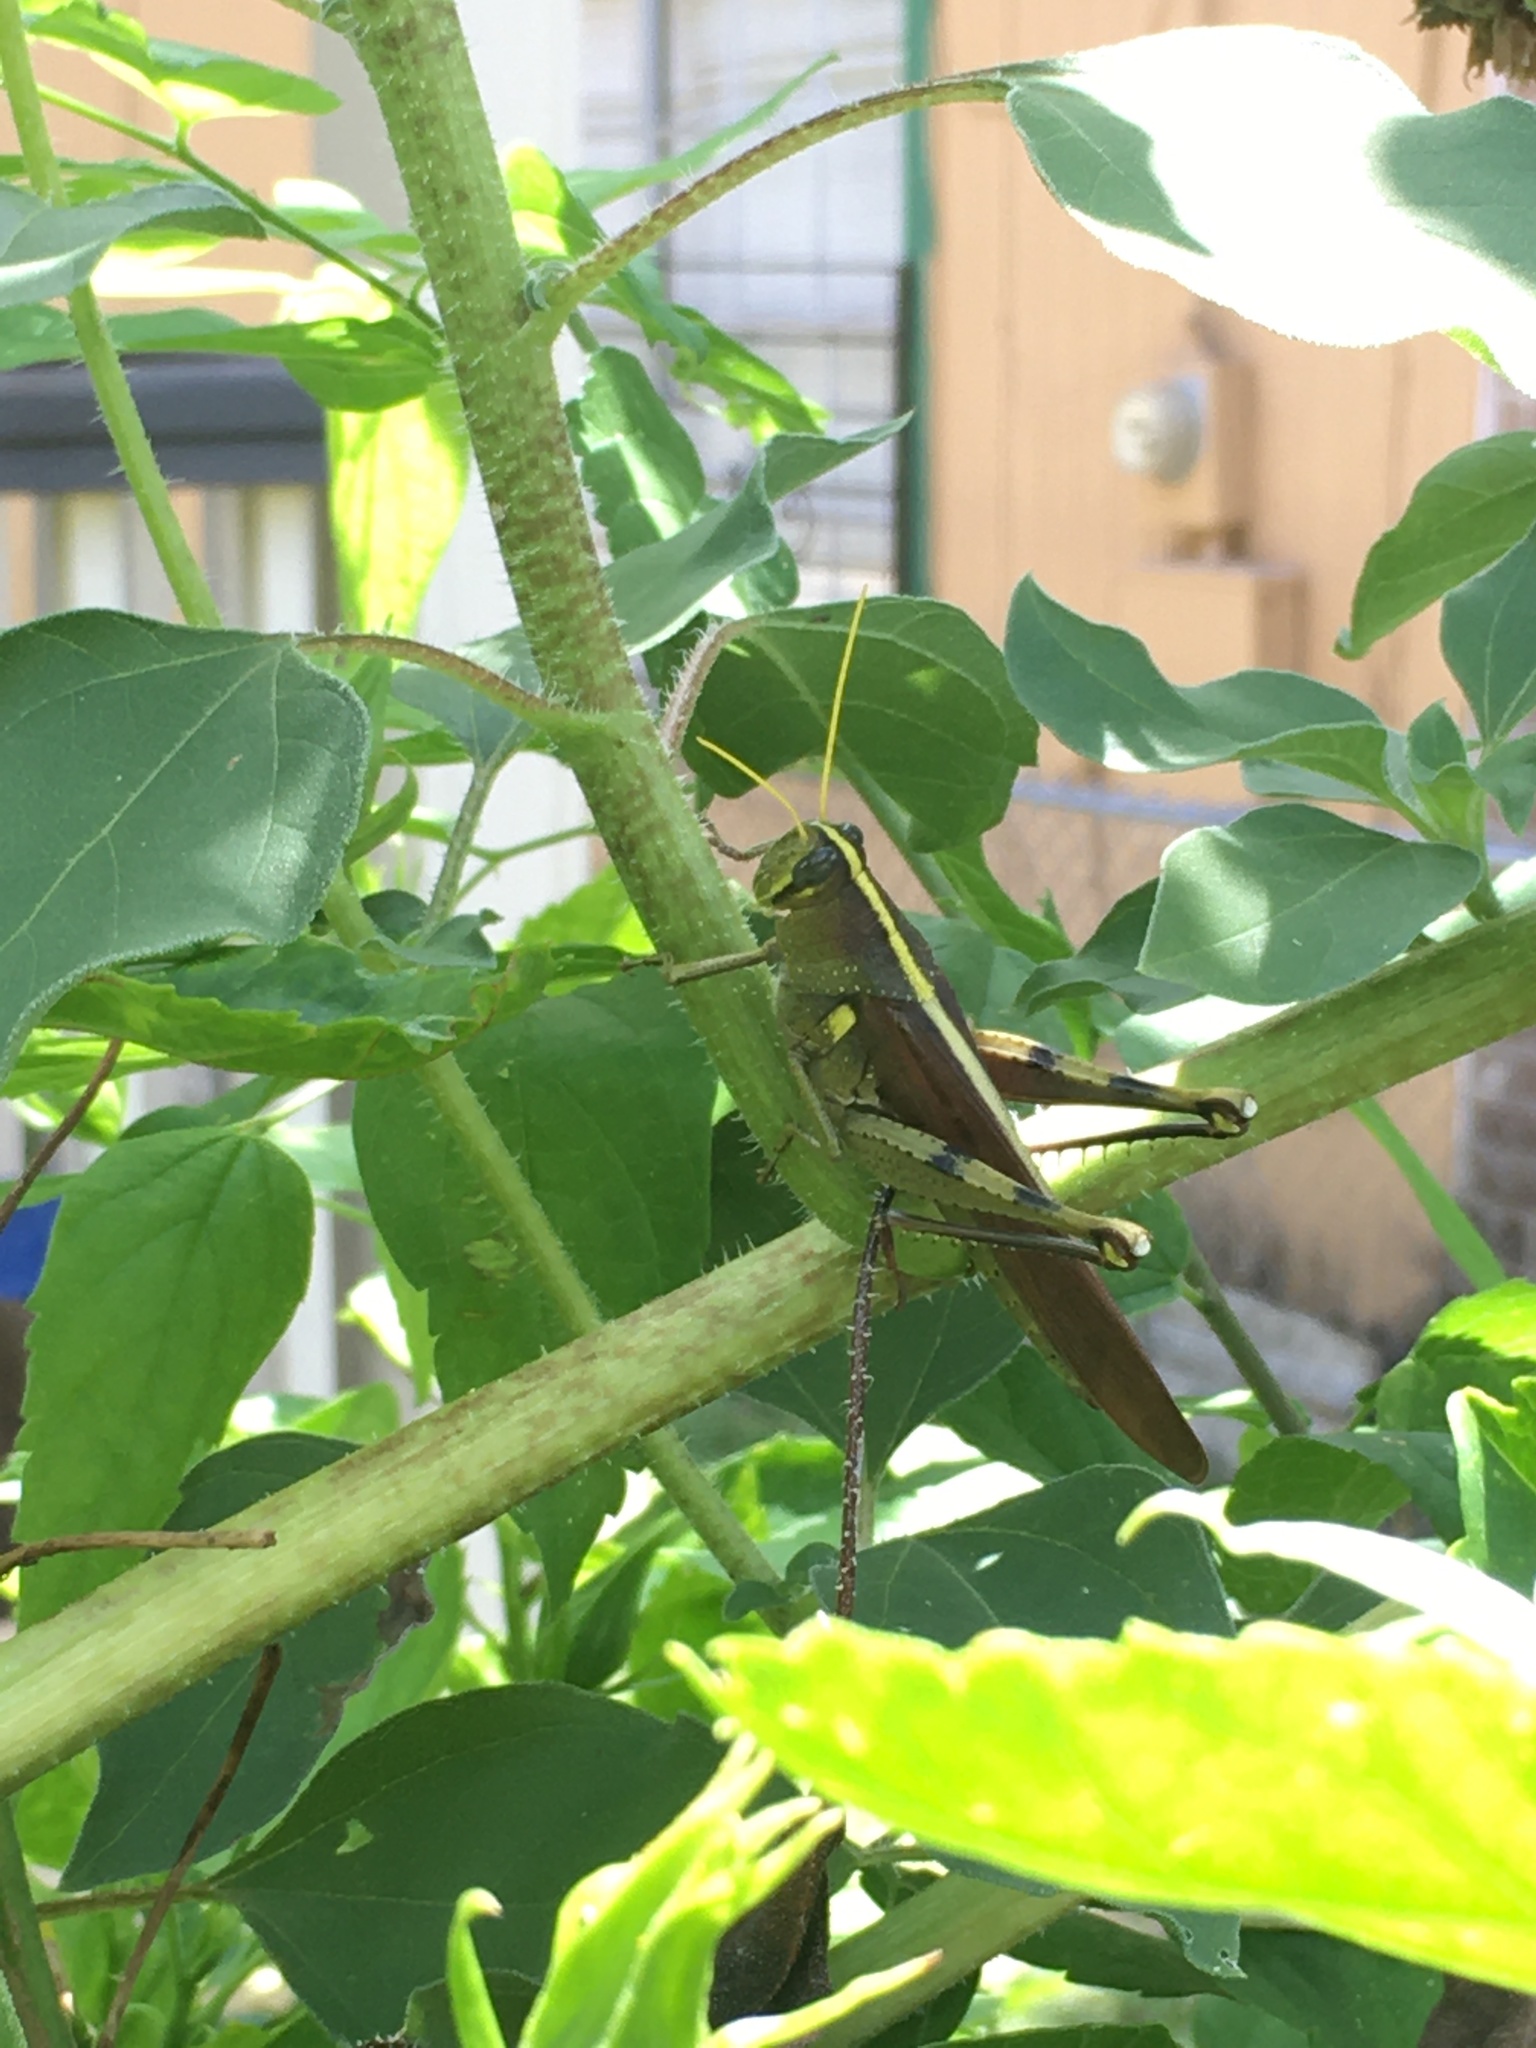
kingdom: Animalia
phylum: Arthropoda
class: Insecta
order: Orthoptera
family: Acrididae
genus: Schistocerca
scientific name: Schistocerca obscura
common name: Obscure bird grasshopper
